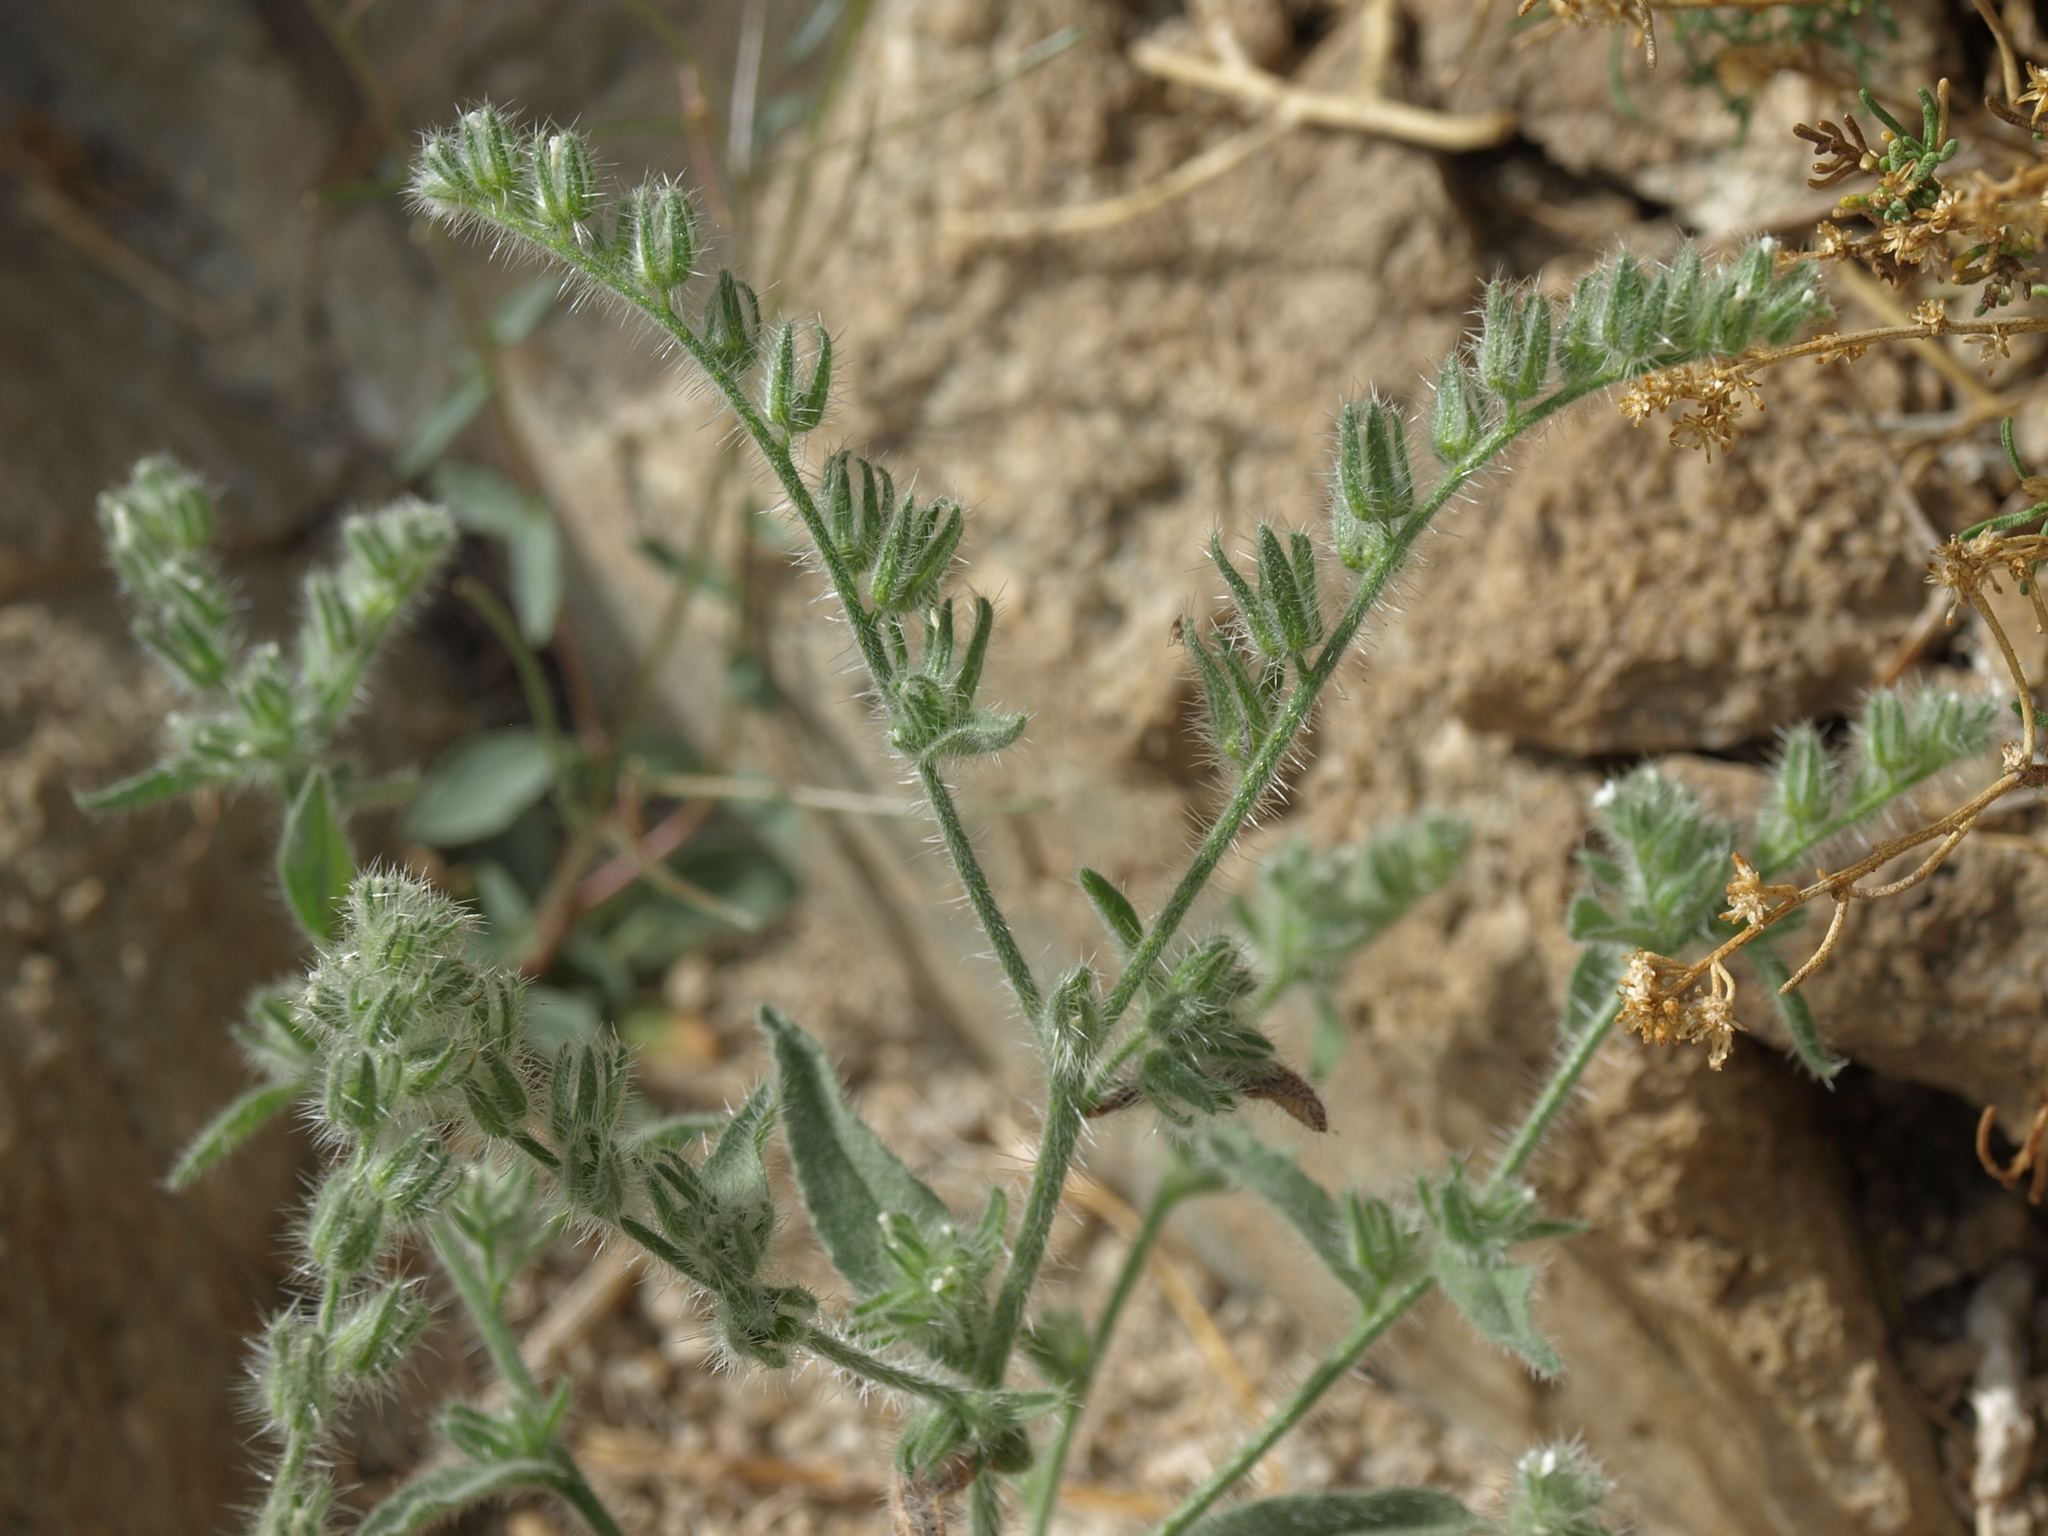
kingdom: Plantae
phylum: Tracheophyta
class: Magnoliopsida
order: Boraginales
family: Boraginaceae
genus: Simpsonanthus
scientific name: Simpsonanthus jonesii
